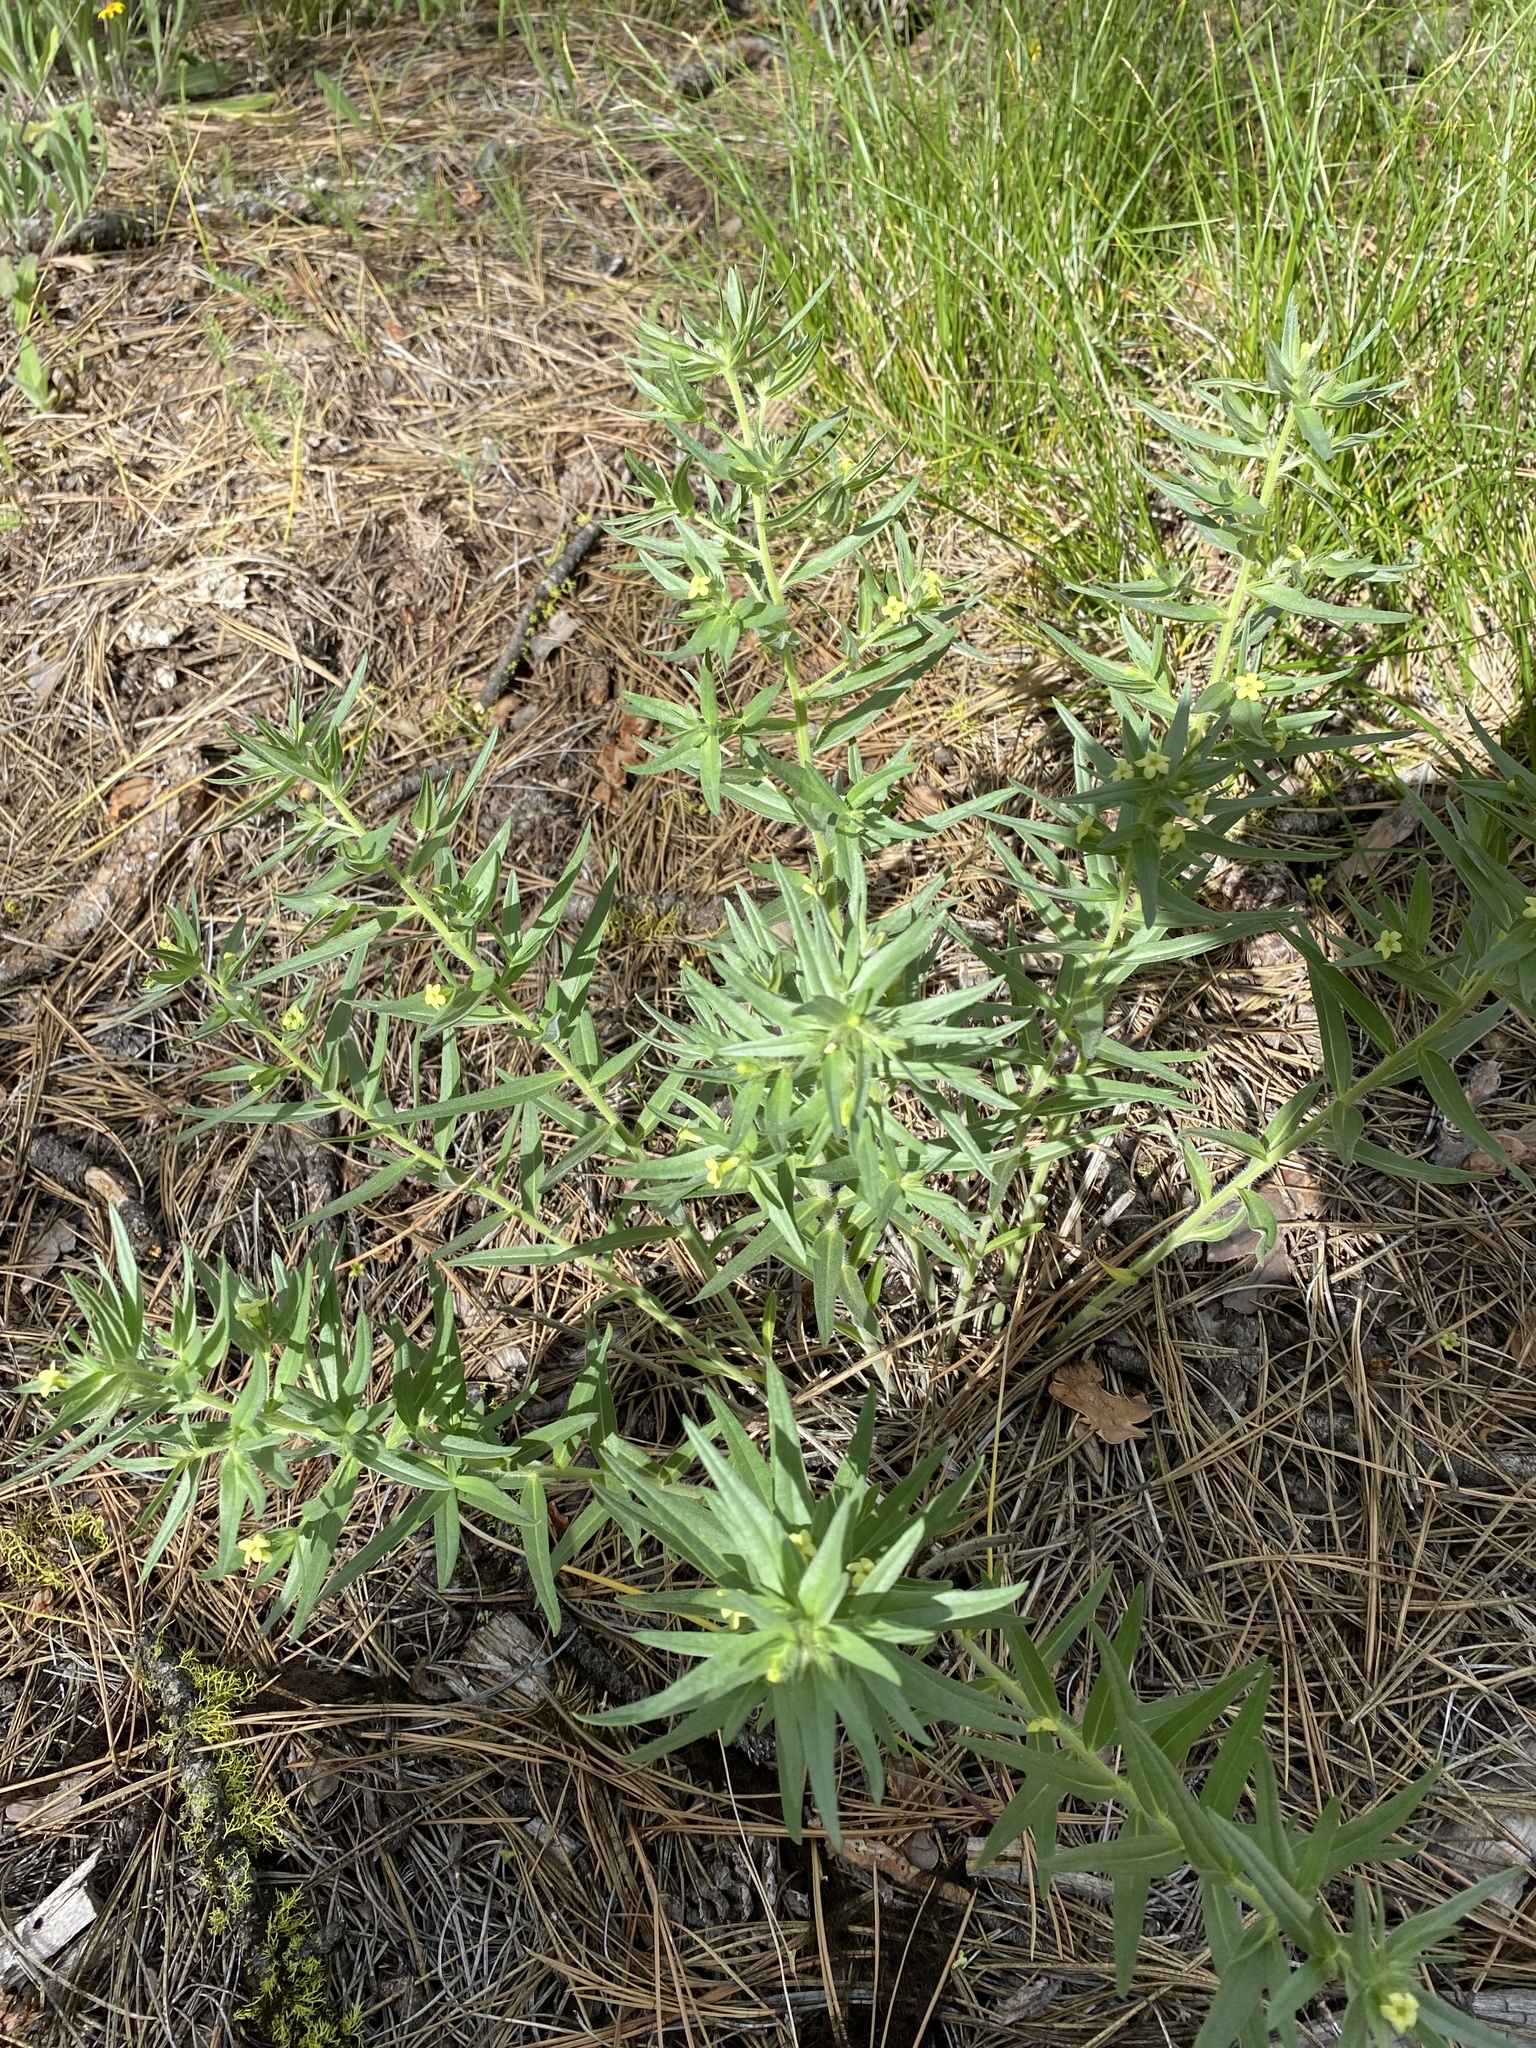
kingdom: Plantae
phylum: Tracheophyta
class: Magnoliopsida
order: Boraginales
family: Boraginaceae
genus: Lithospermum
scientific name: Lithospermum ruderale
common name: Western gromwell
